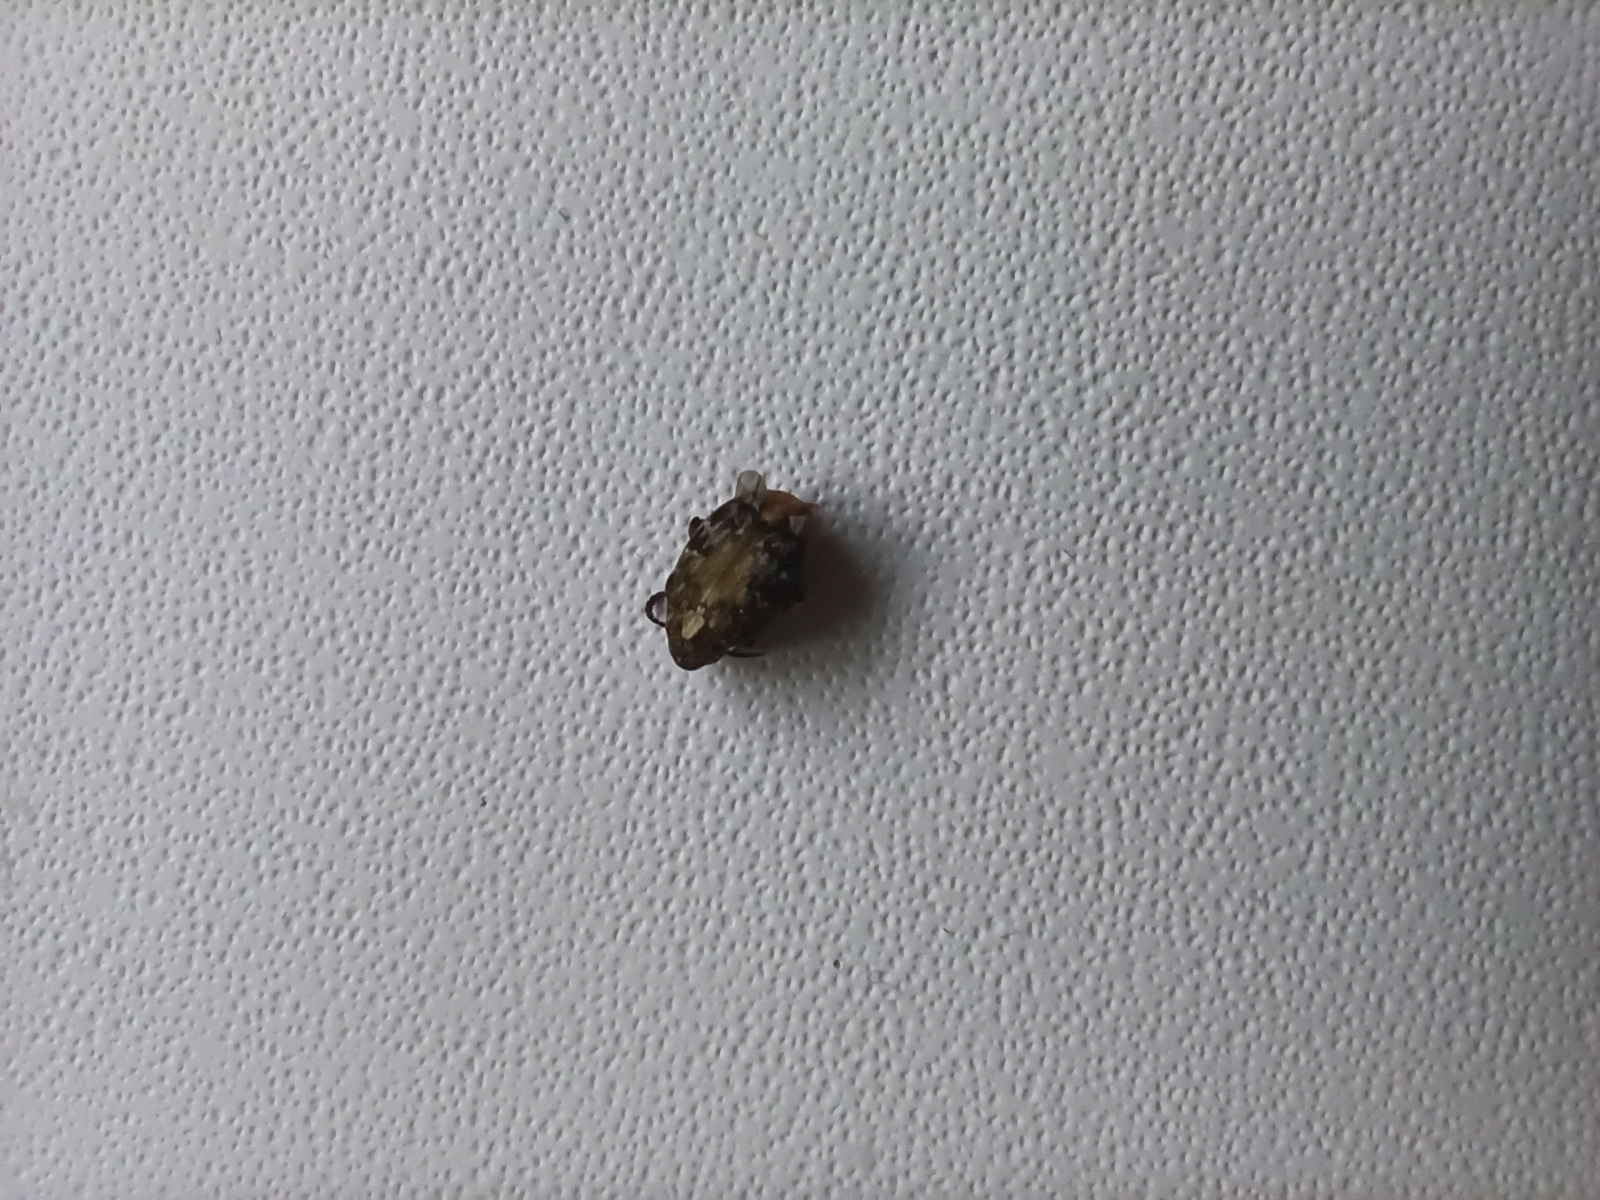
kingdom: Animalia
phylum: Arthropoda
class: Insecta
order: Coleoptera
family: Chrysomelidae
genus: Megabruchidius
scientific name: Megabruchidius dorsalis
